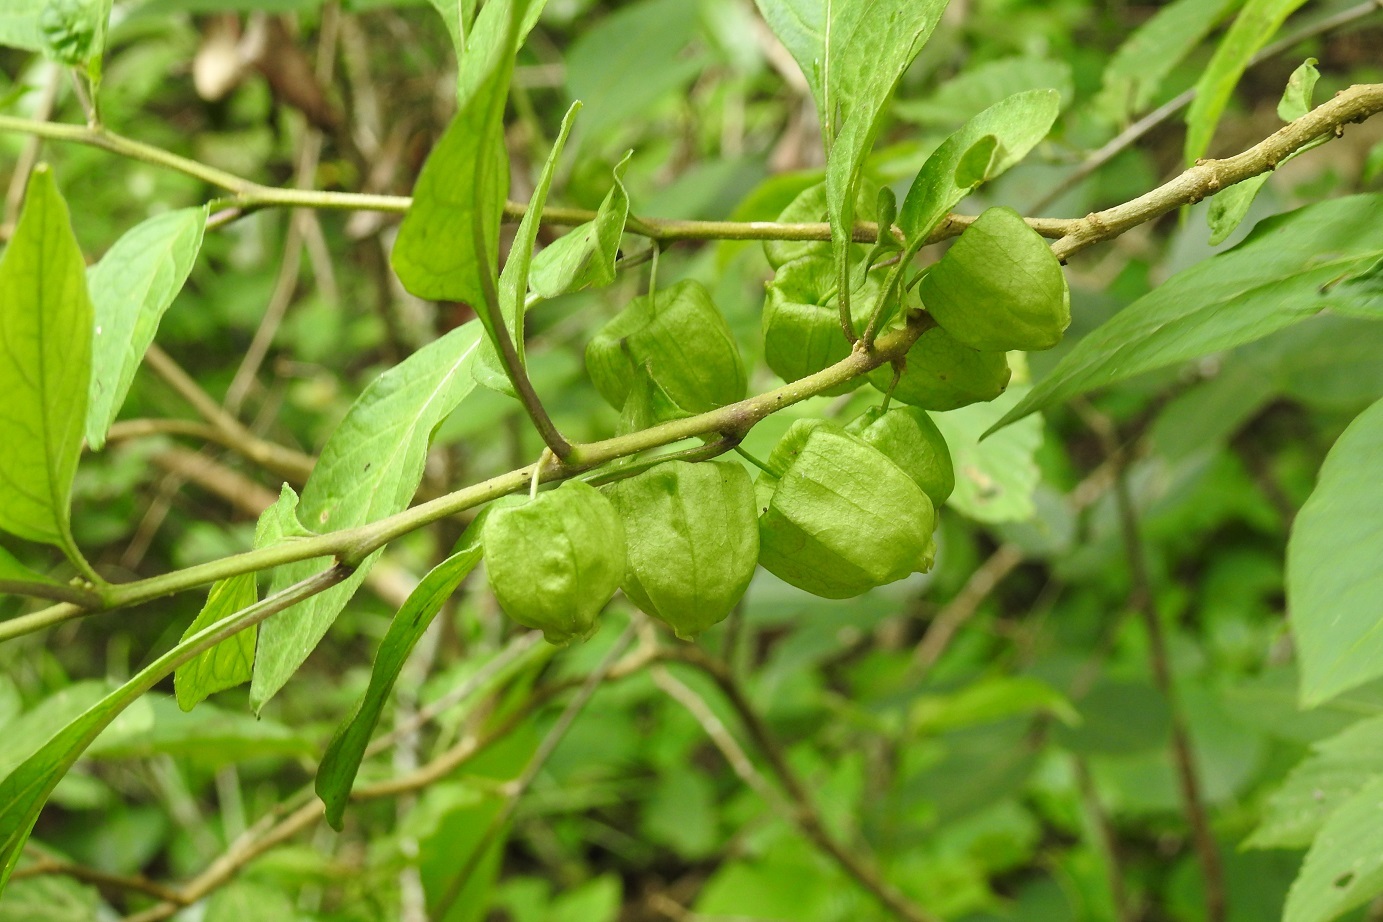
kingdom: Plantae
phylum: Tracheophyta
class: Magnoliopsida
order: Solanales
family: Solanaceae
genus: Physalis
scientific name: Physalis campechiana
